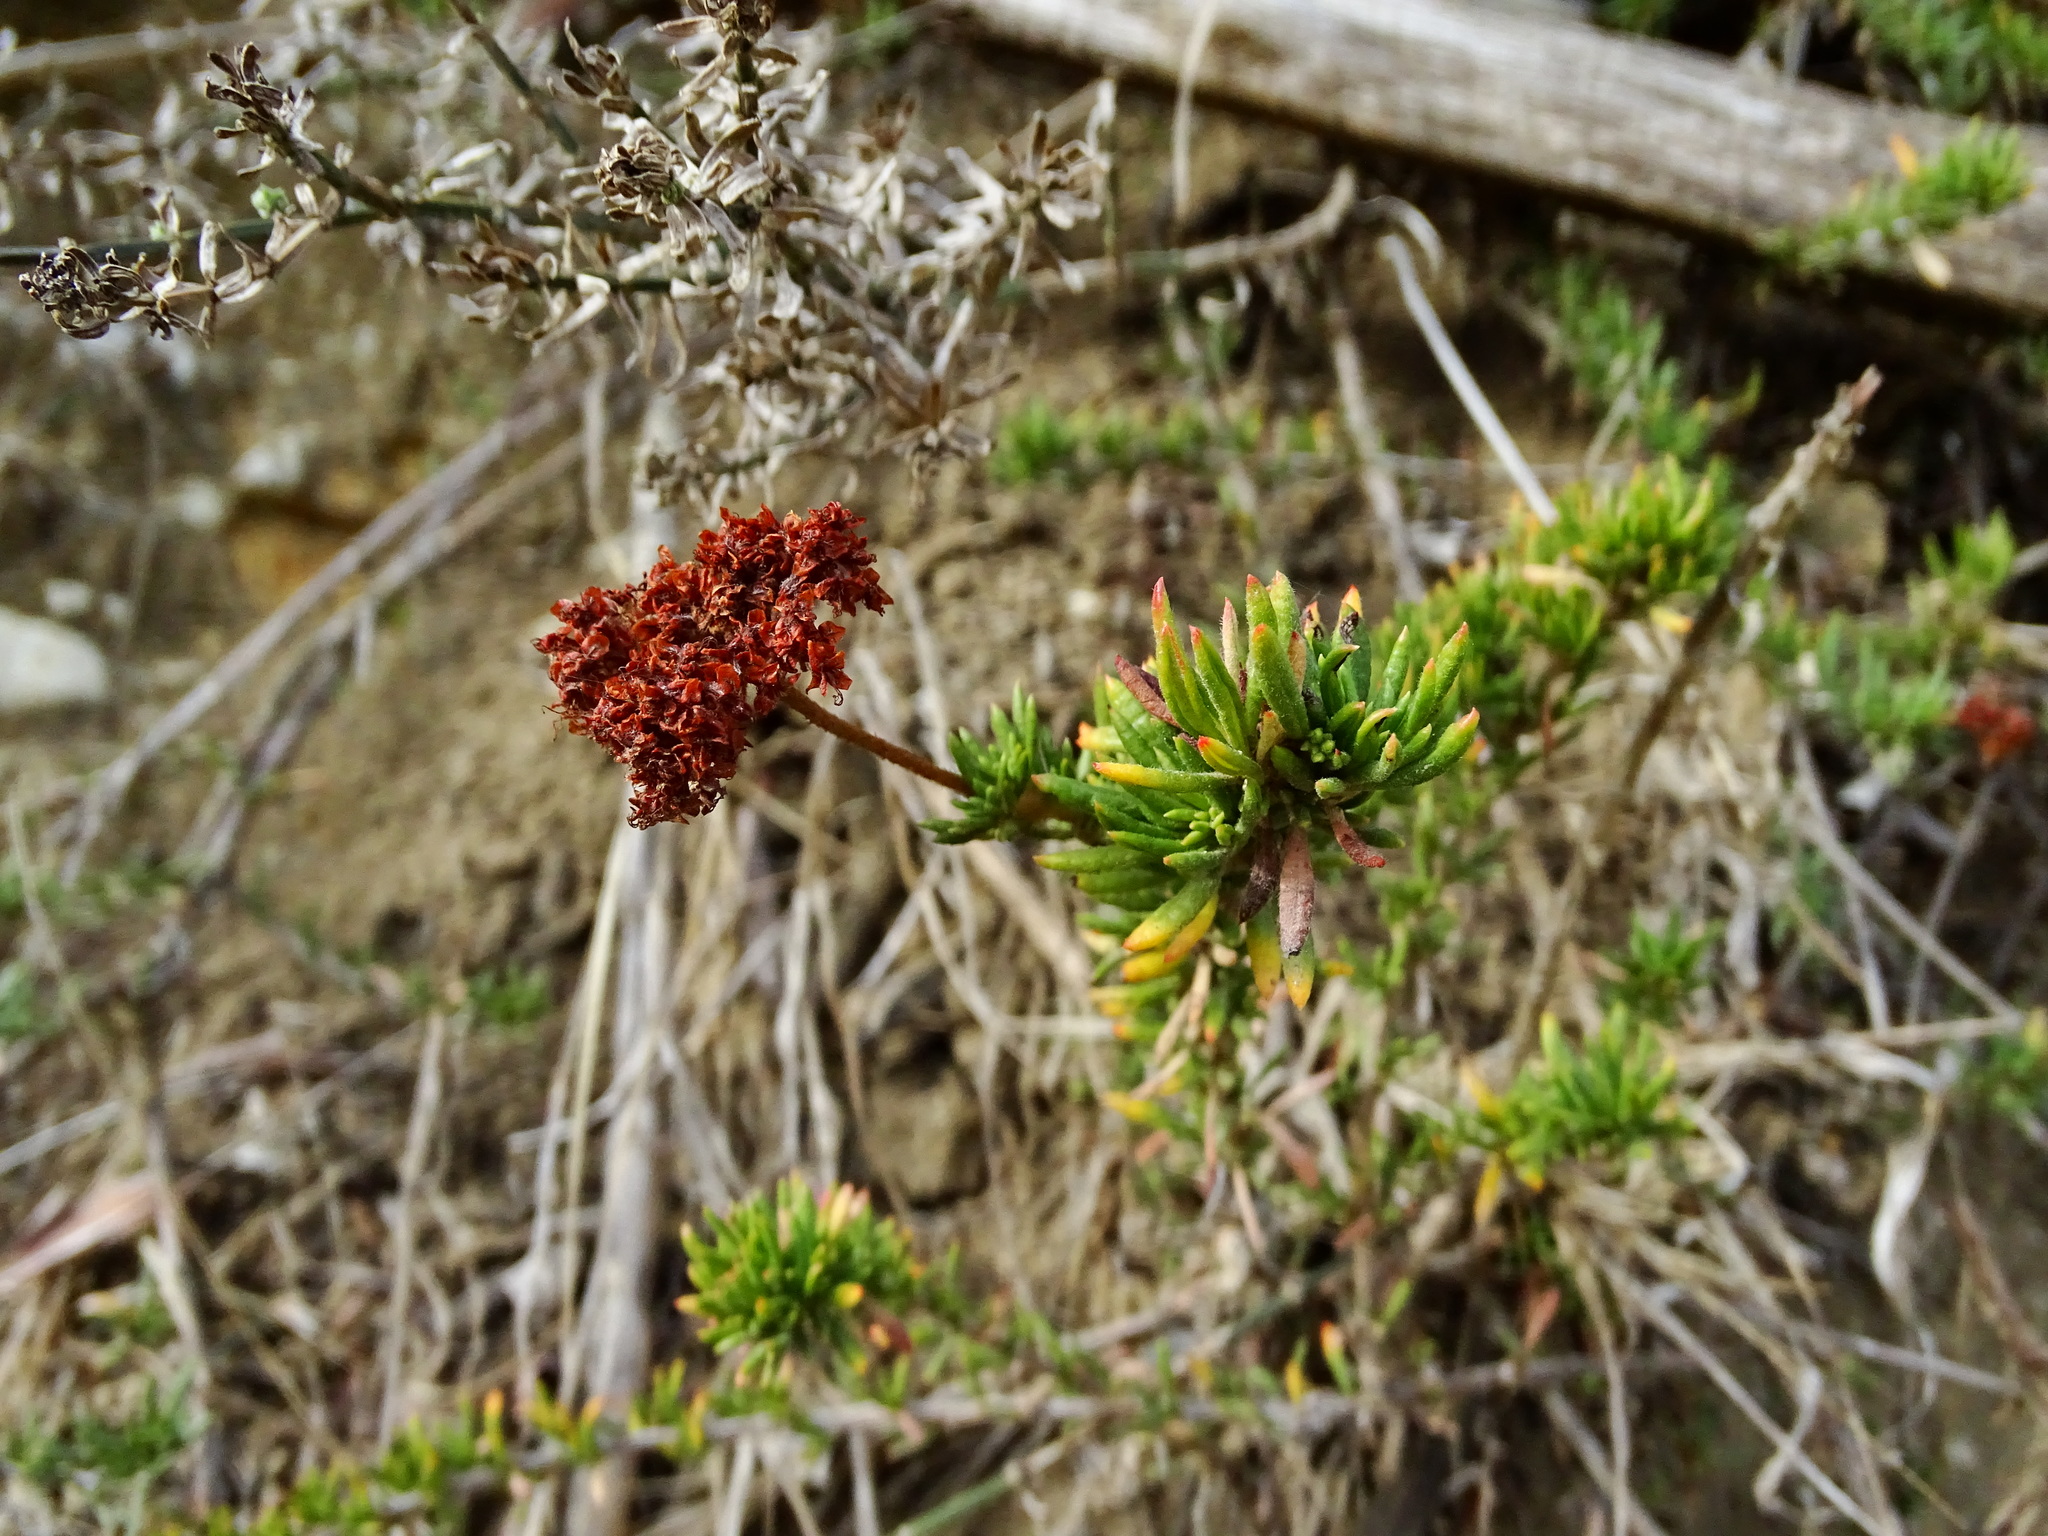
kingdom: Plantae
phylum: Tracheophyta
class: Magnoliopsida
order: Caryophyllales
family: Polygonaceae
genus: Eriogonum
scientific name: Eriogonum fasciculatum
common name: California wild buckwheat
